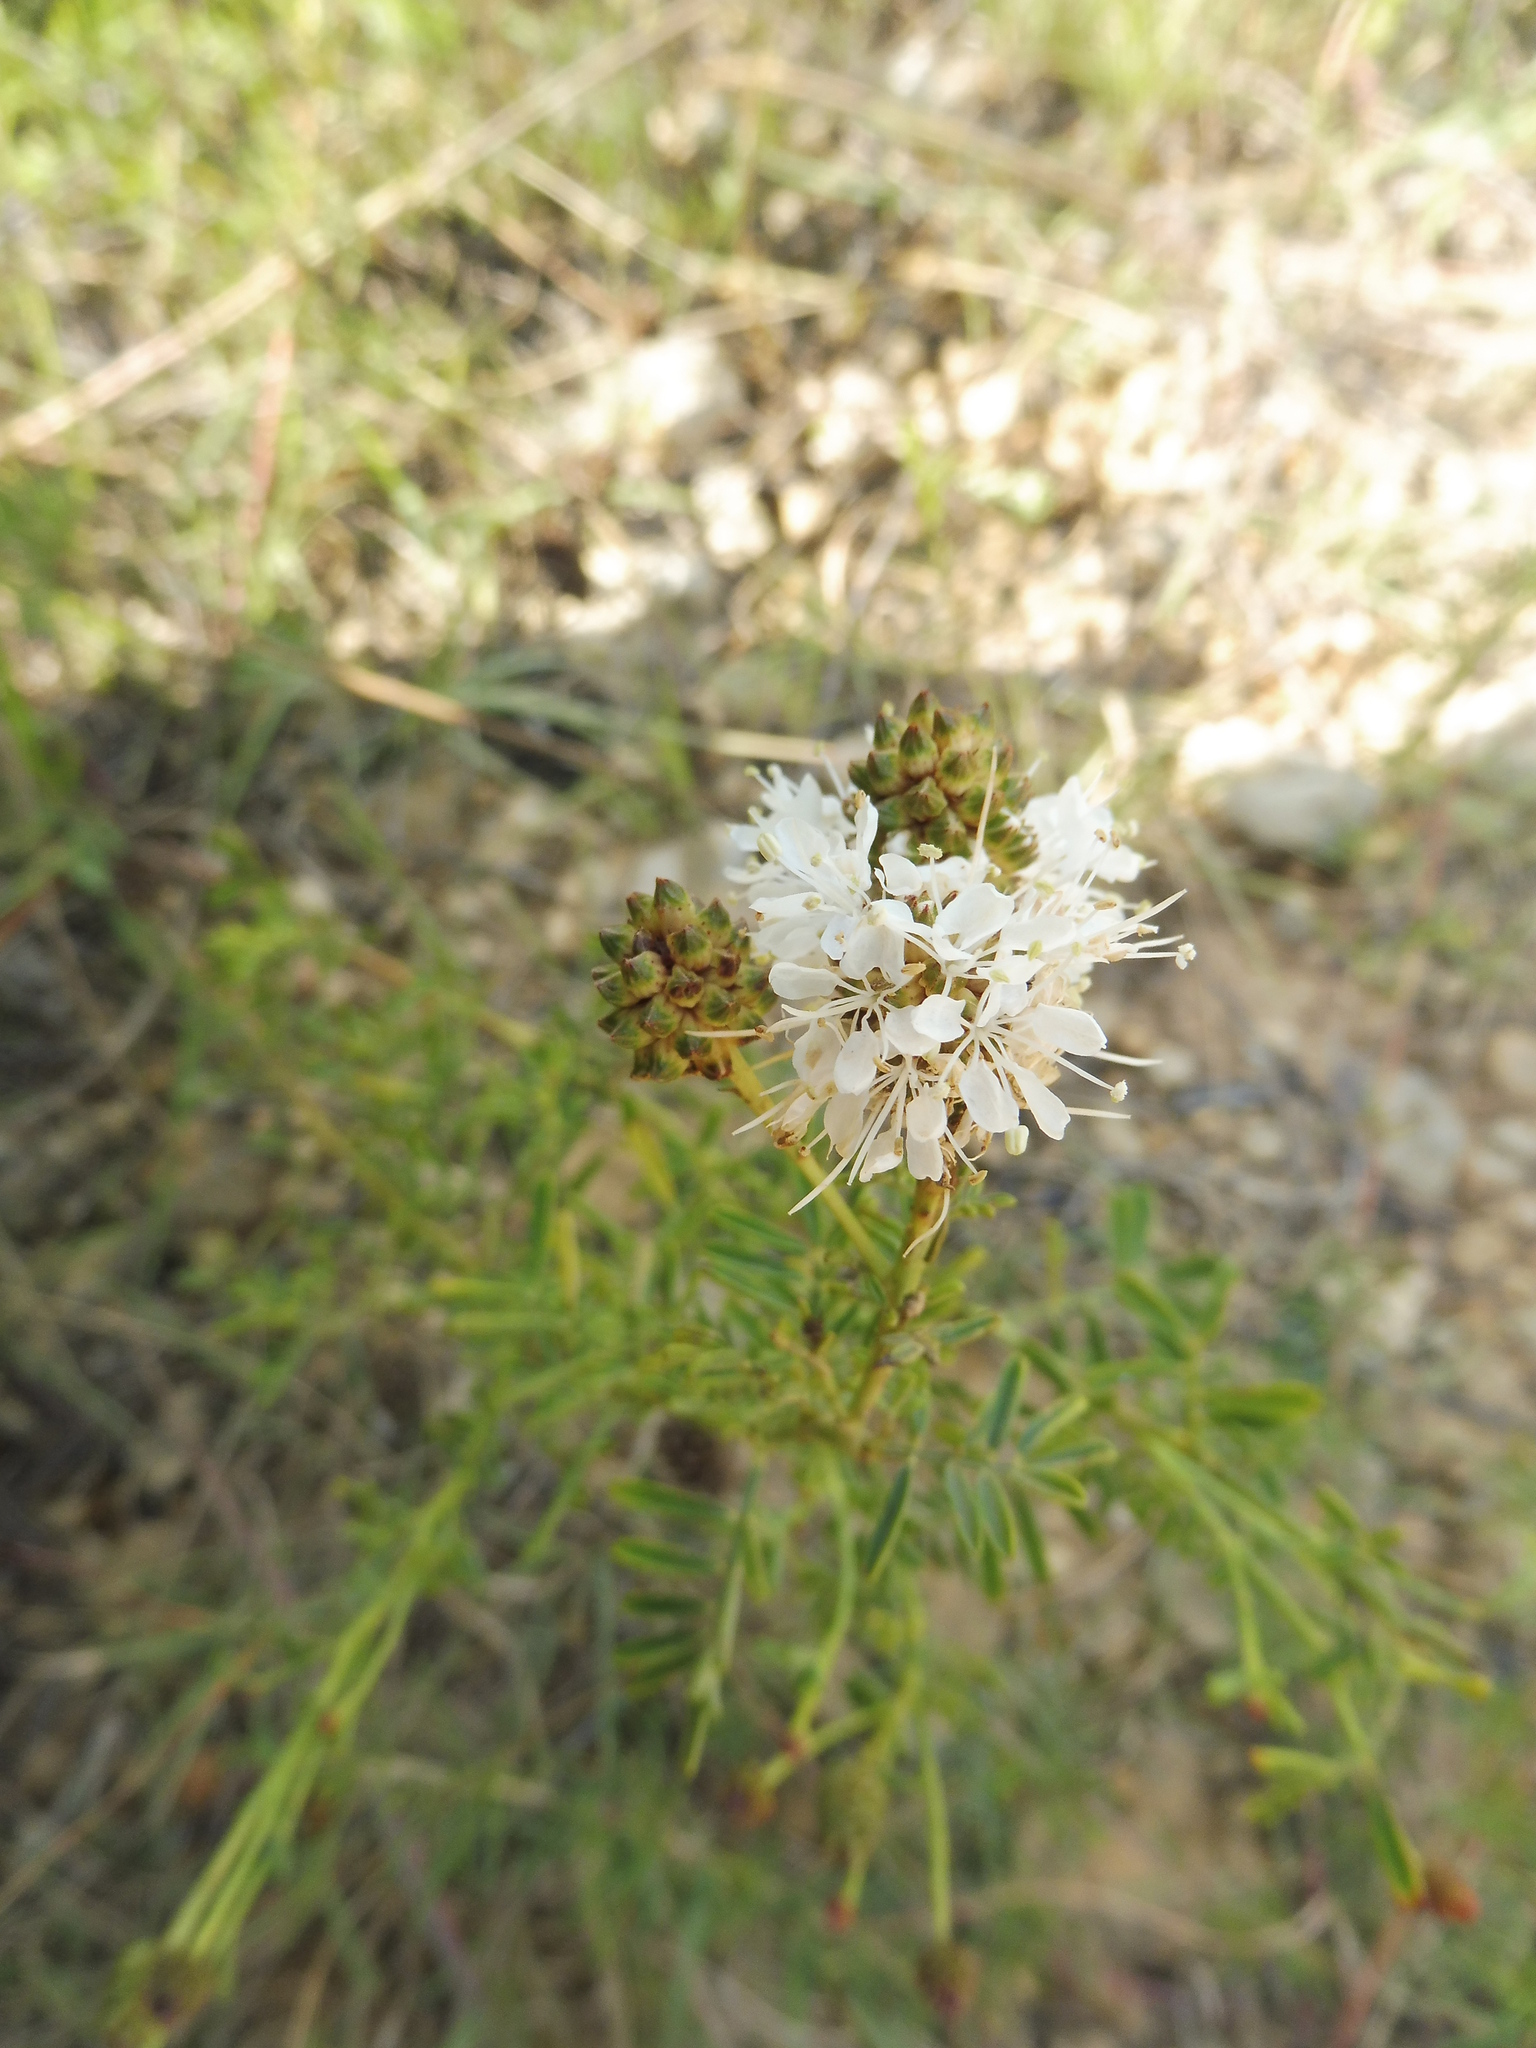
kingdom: Plantae
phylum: Tracheophyta
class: Magnoliopsida
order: Fabales
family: Fabaceae
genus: Dalea
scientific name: Dalea multiflora
